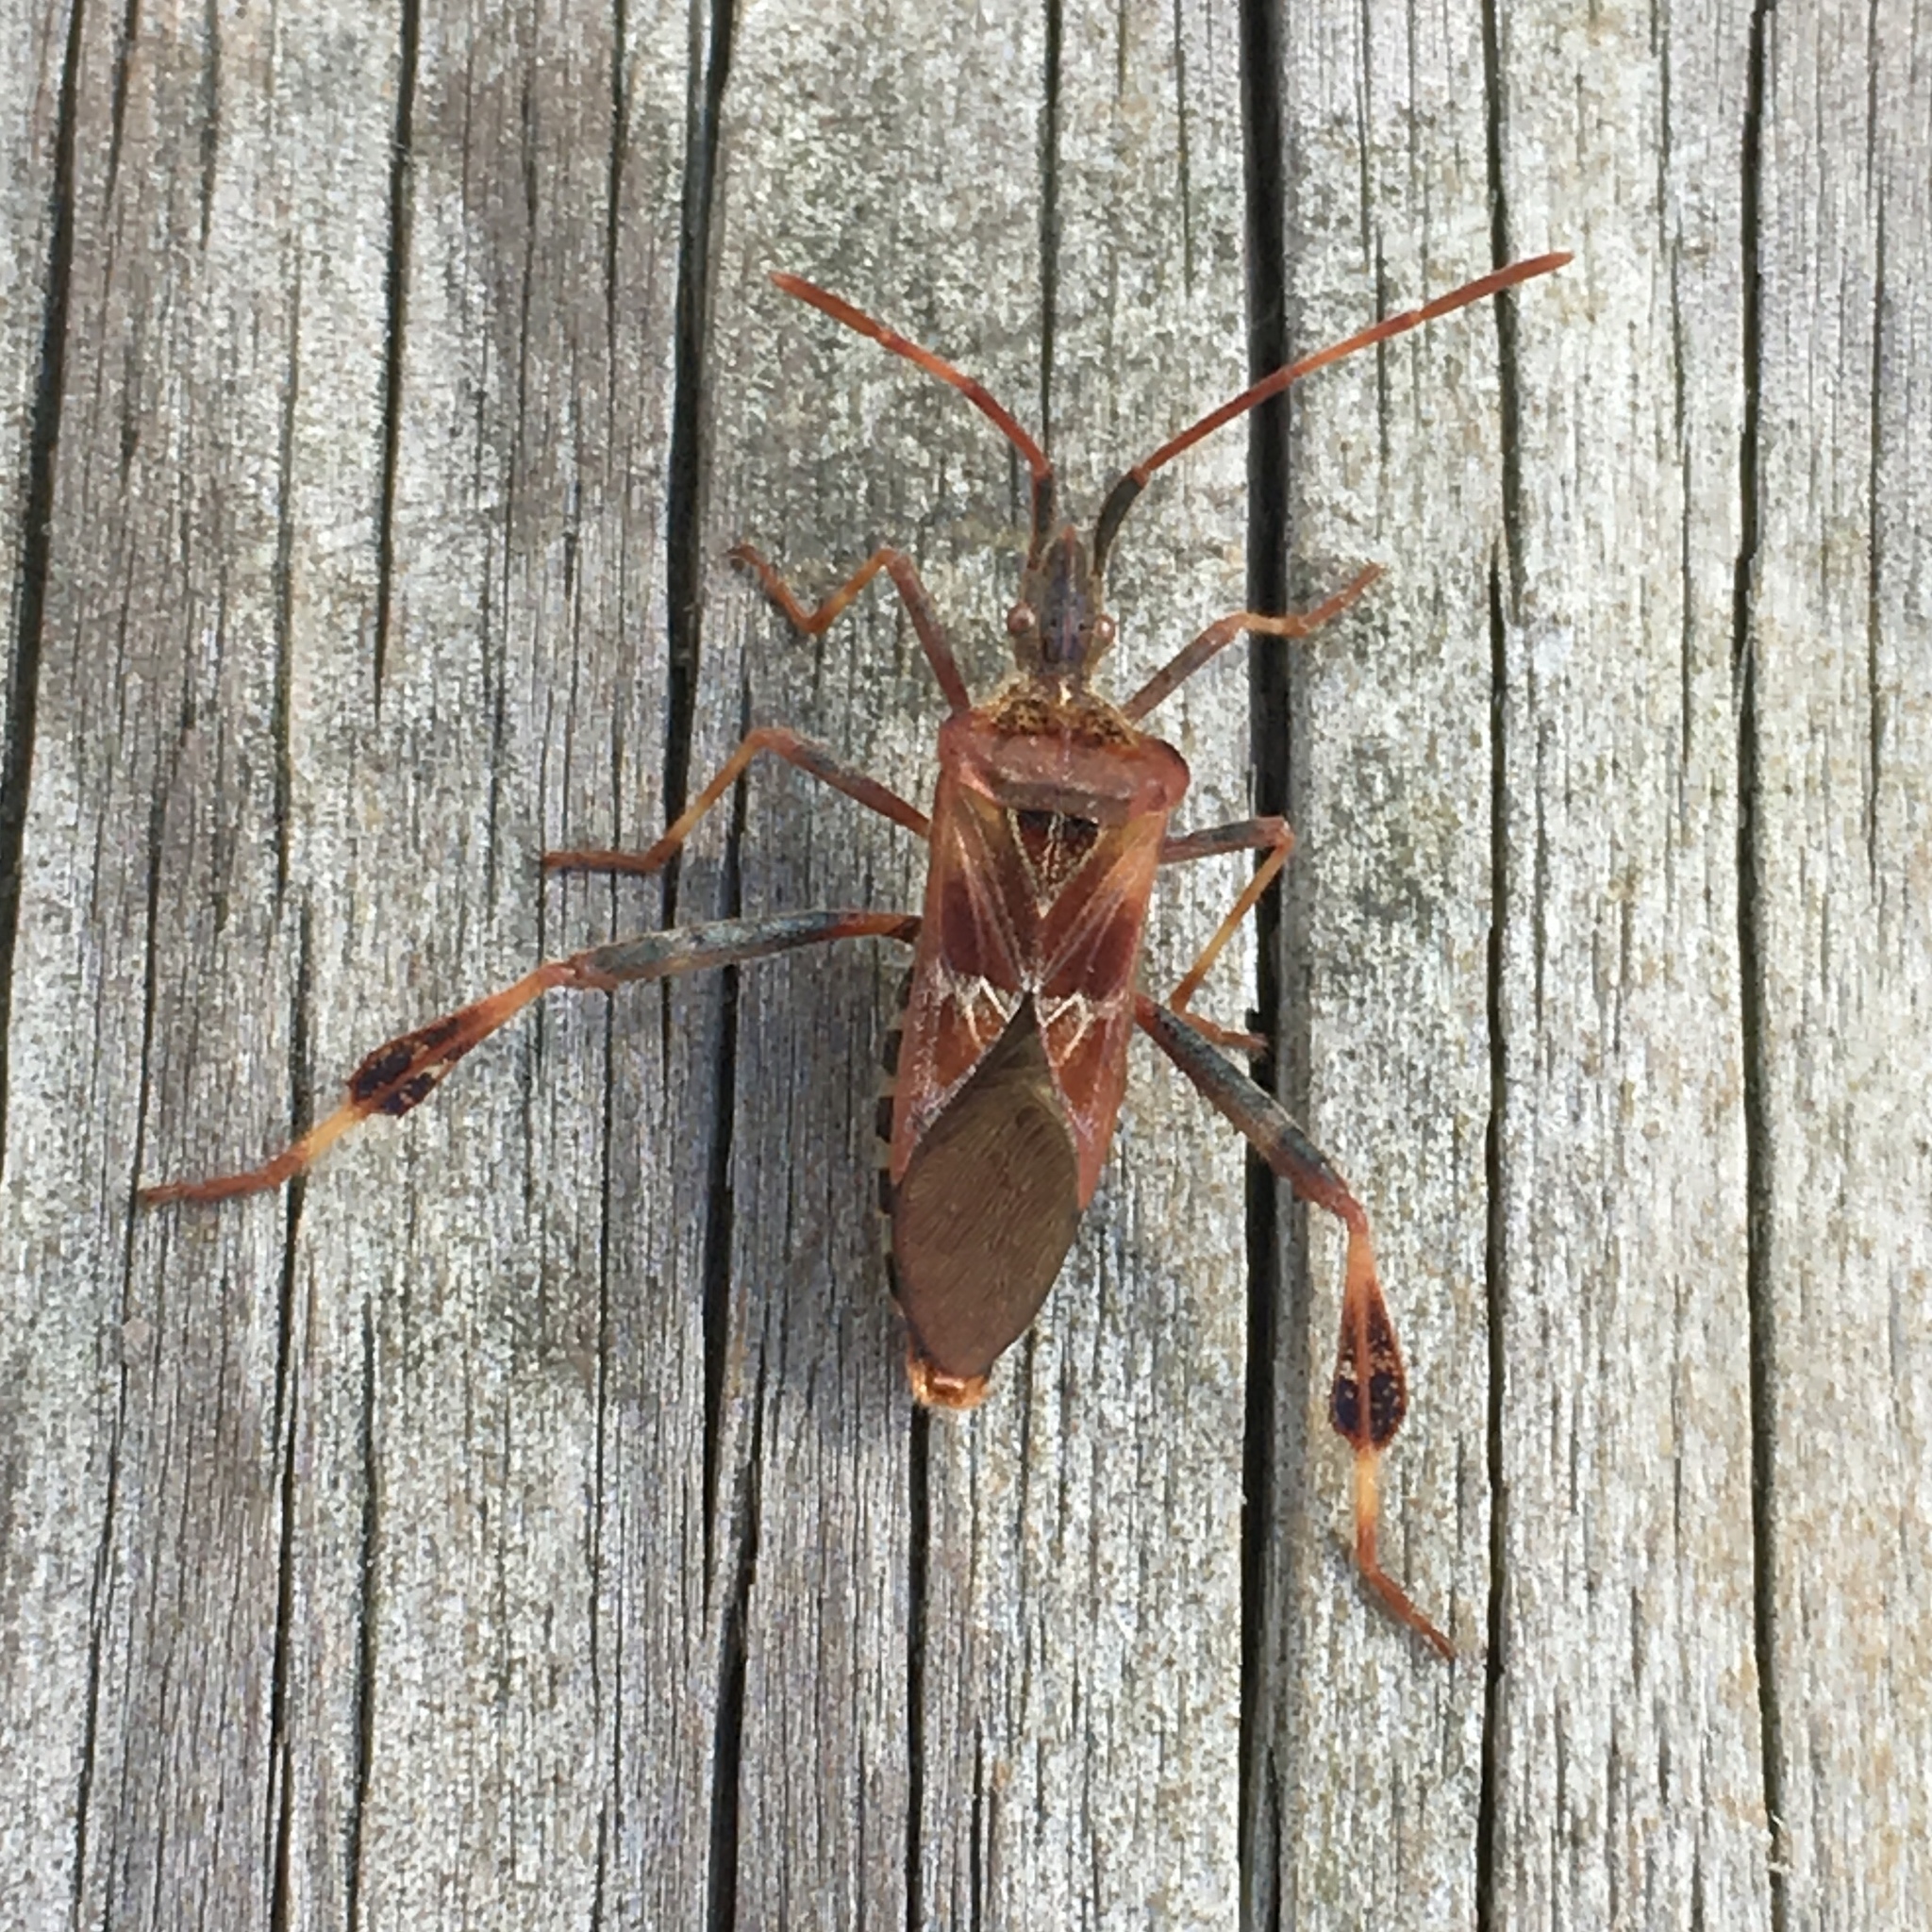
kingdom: Animalia
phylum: Arthropoda
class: Insecta
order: Hemiptera
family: Coreidae
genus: Leptoglossus
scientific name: Leptoglossus occidentalis
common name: Western conifer-seed bug
